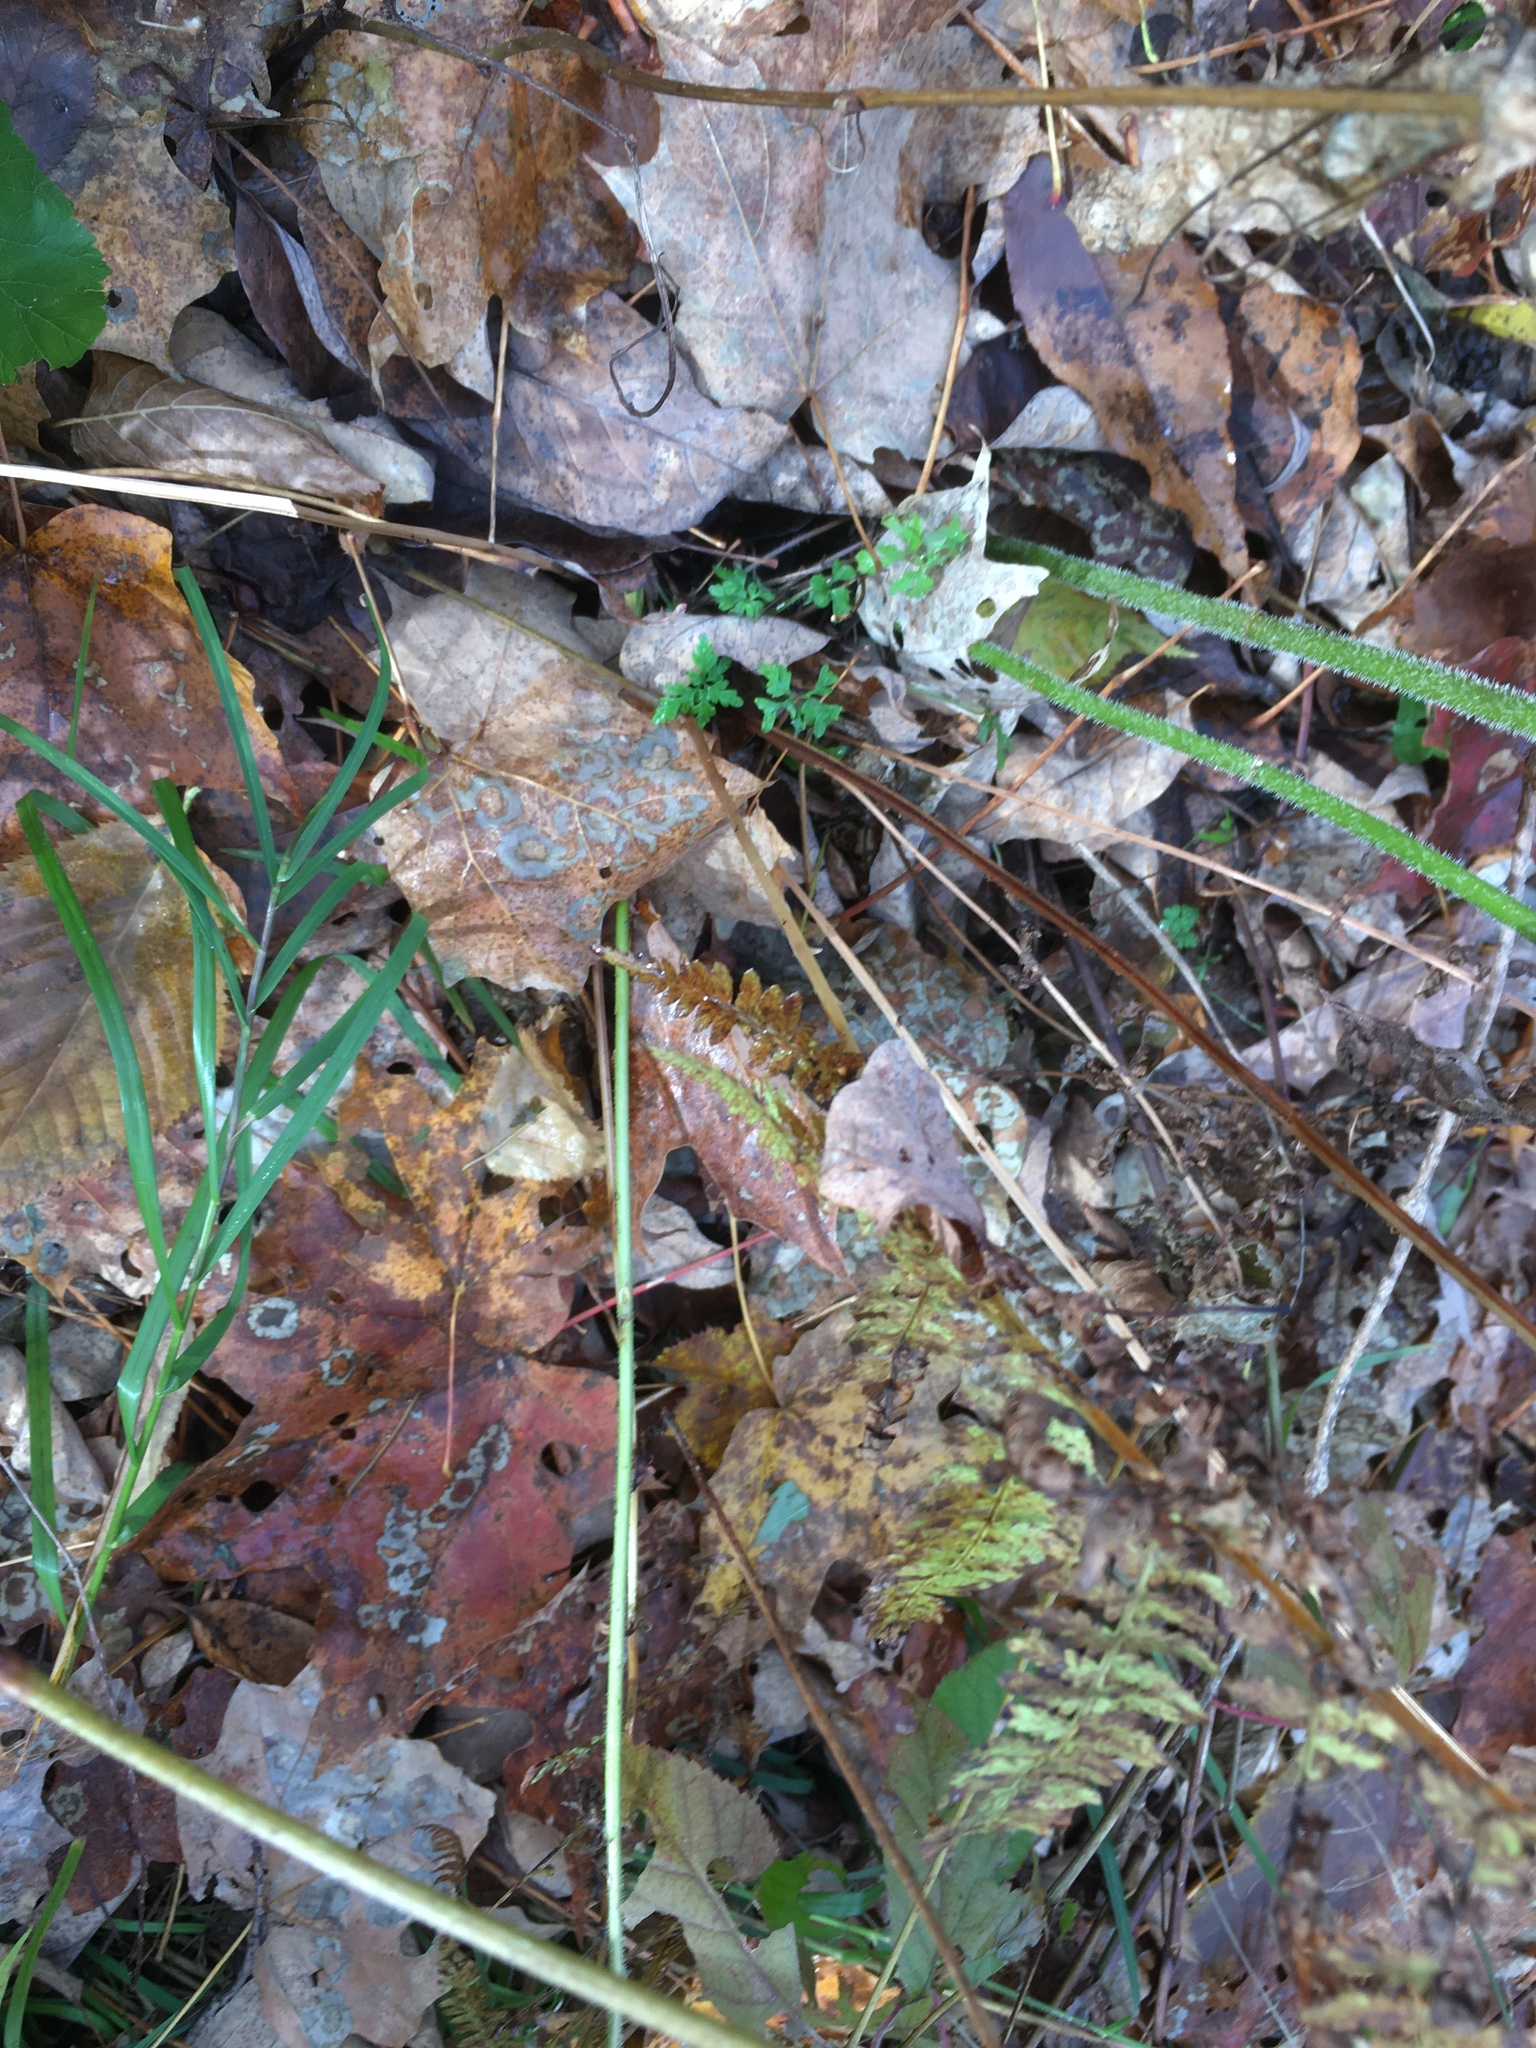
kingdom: Plantae
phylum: Tracheophyta
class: Polypodiopsida
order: Polypodiales
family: Athyriaceae
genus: Athyrium
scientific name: Athyrium angustum
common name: Northern lady fern
